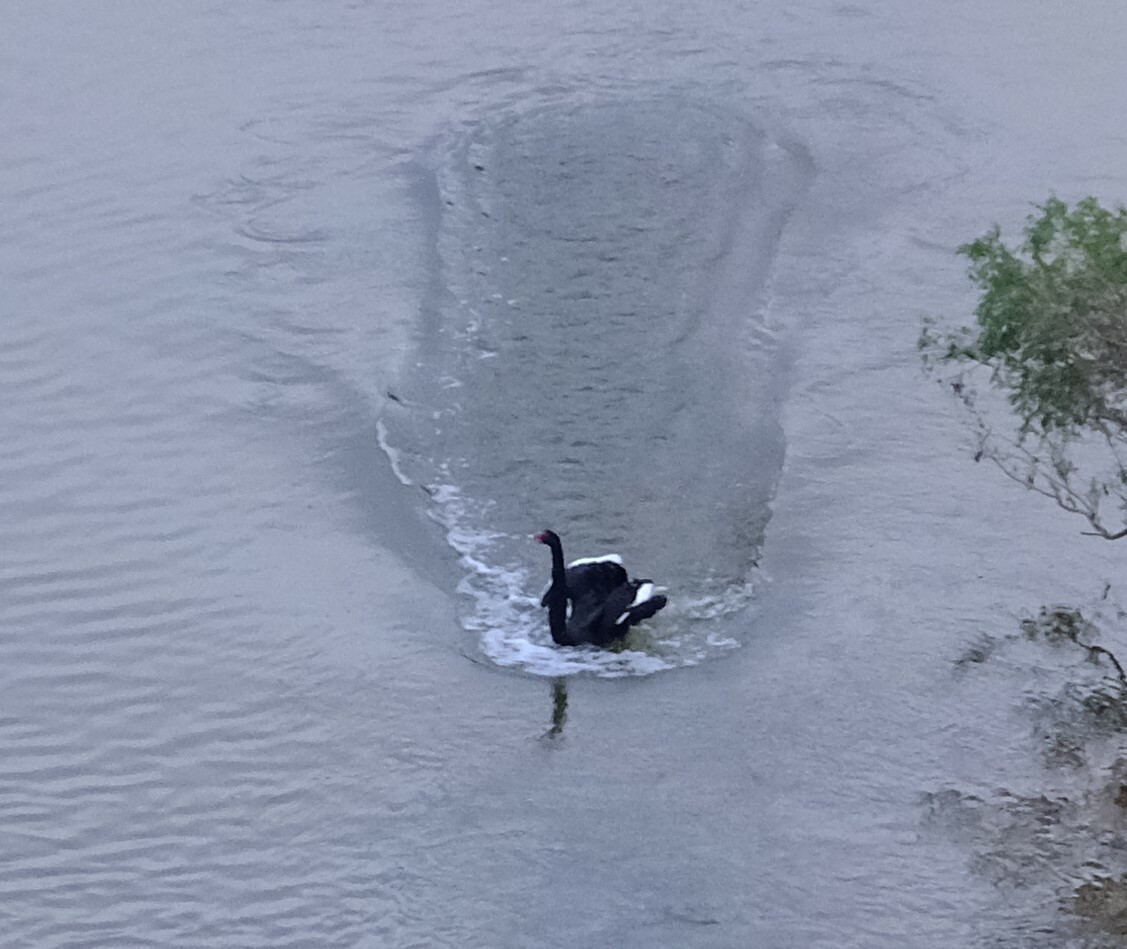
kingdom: Animalia
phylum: Chordata
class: Aves
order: Anseriformes
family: Anatidae
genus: Cygnus
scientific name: Cygnus atratus
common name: Black swan
